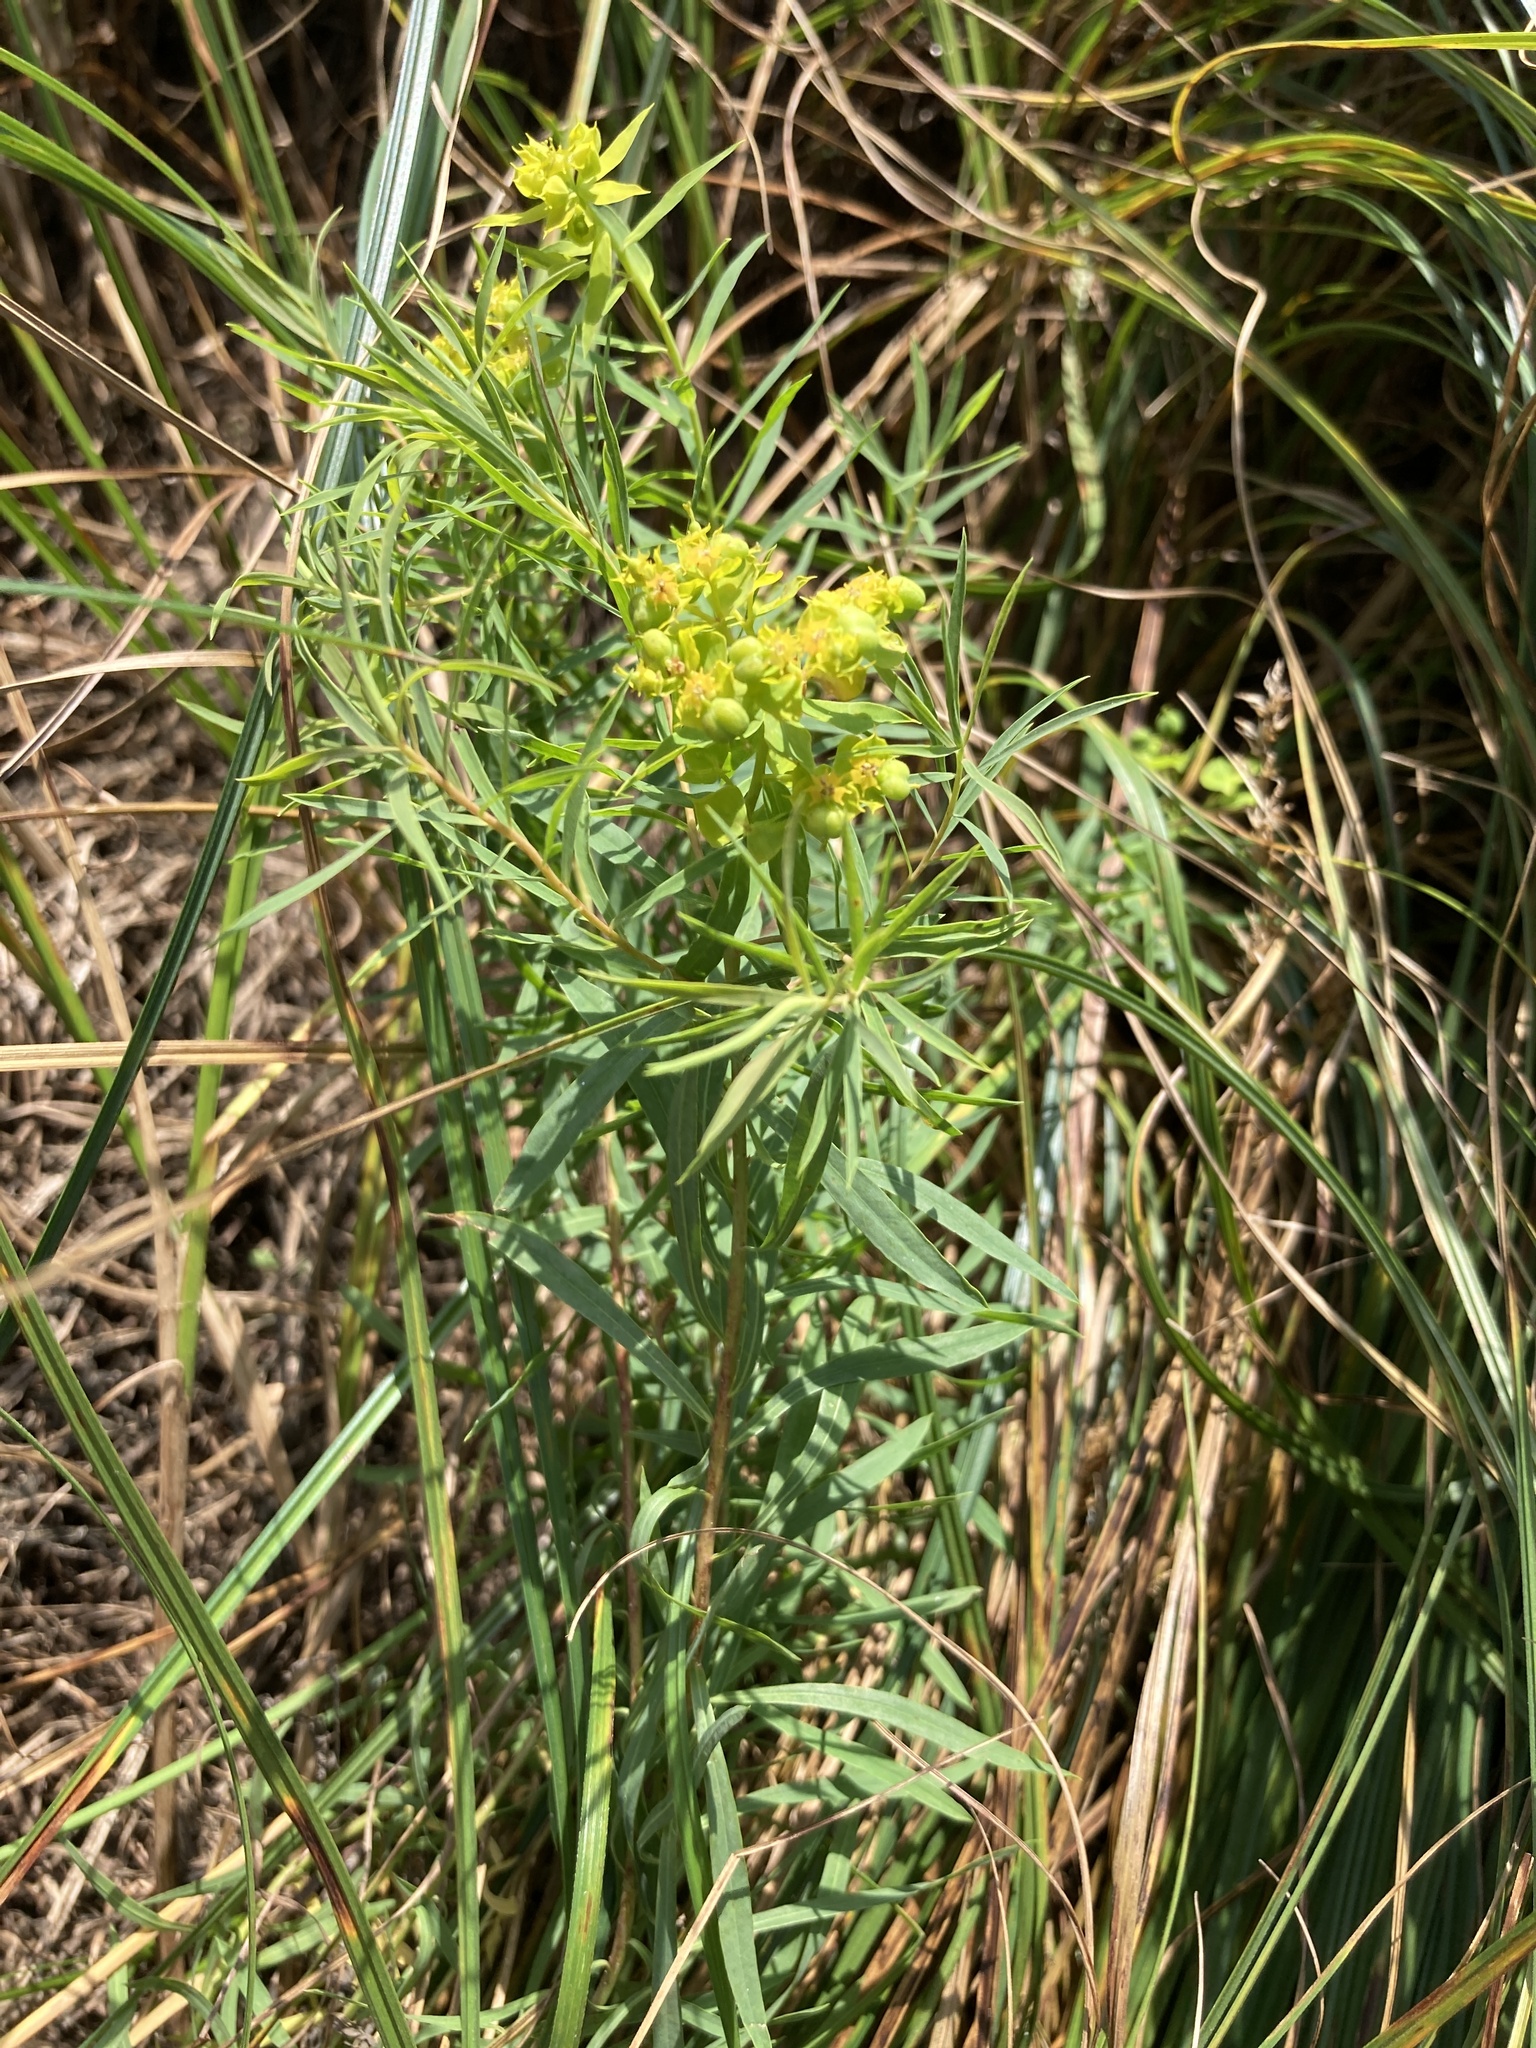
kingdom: Plantae
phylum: Tracheophyta
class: Magnoliopsida
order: Malpighiales
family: Euphorbiaceae
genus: Euphorbia
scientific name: Euphorbia virgata
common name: Leafy spurge
